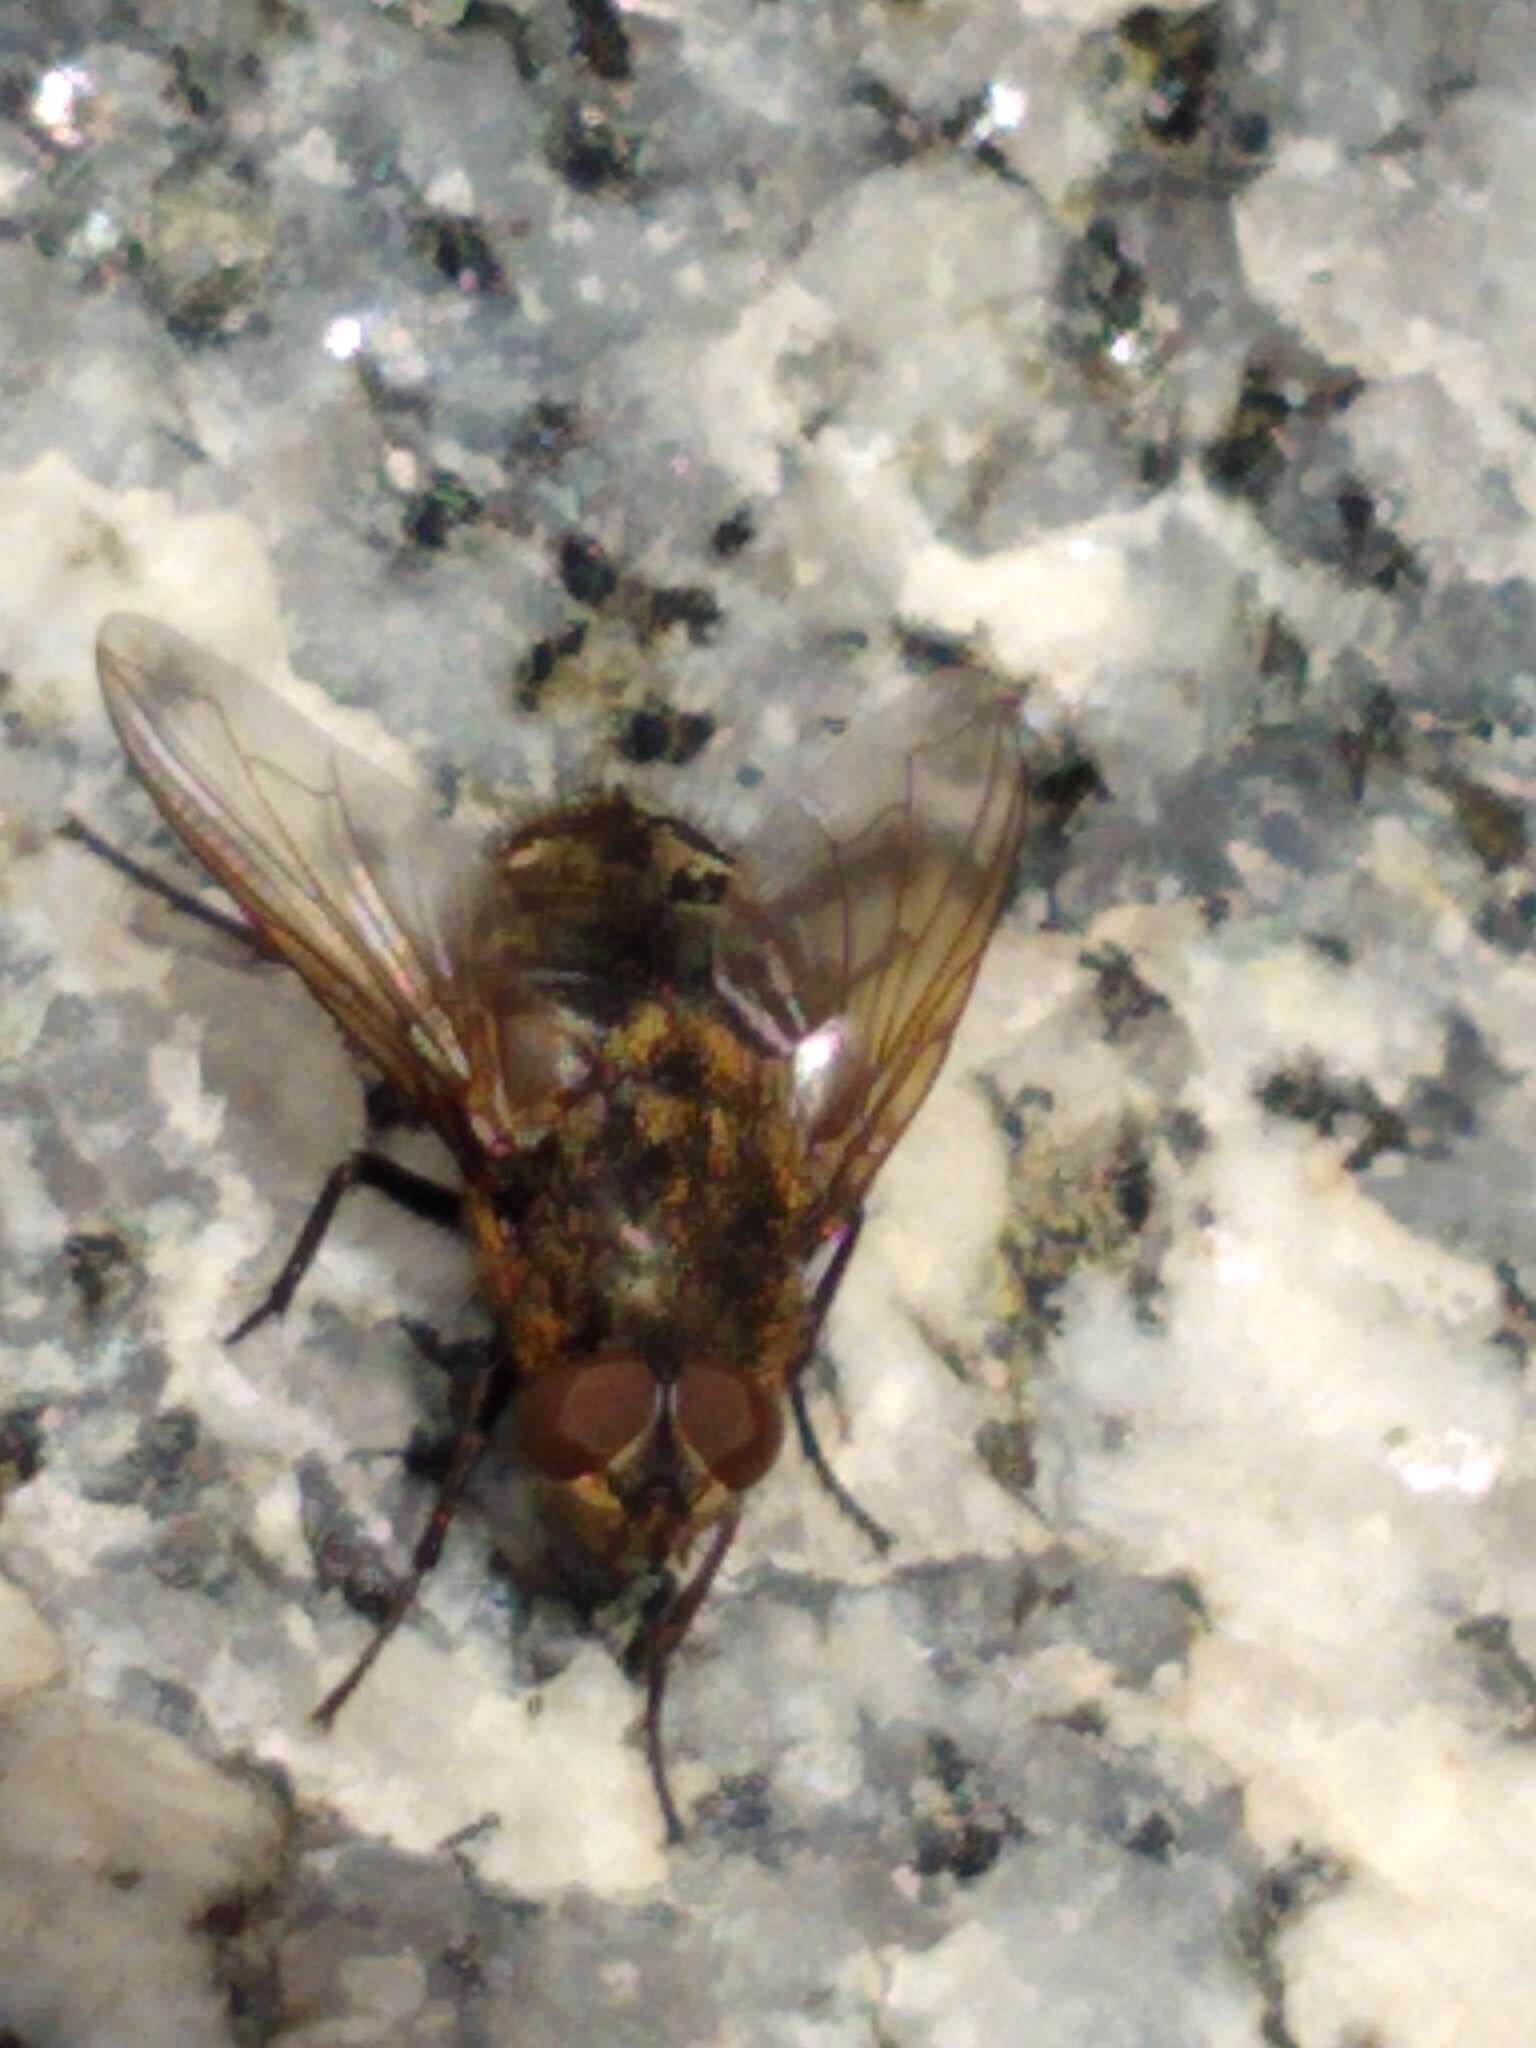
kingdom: Animalia
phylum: Arthropoda
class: Insecta
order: Diptera
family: Polleniidae
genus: Pollenia
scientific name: Pollenia
